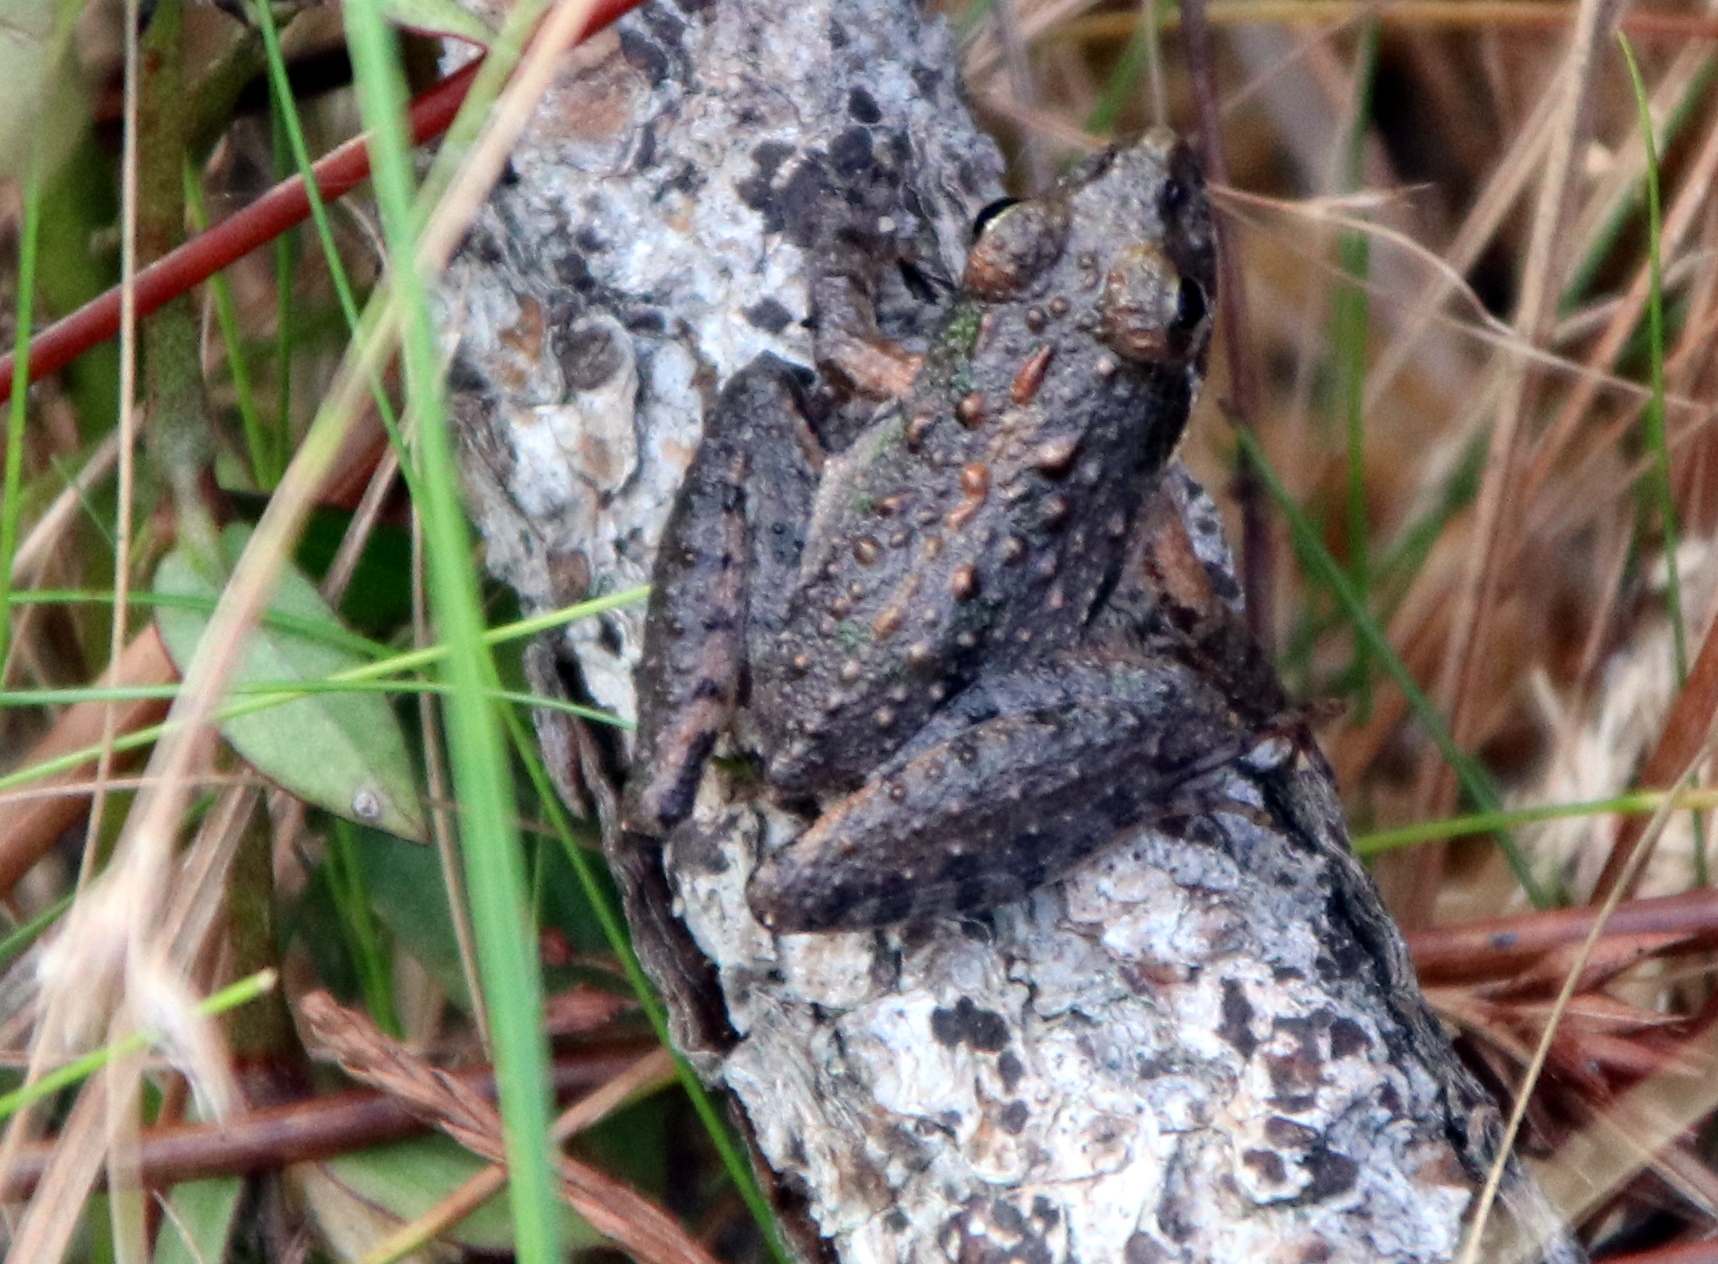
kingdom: Animalia
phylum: Chordata
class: Amphibia
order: Anura
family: Hylidae
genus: Acris
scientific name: Acris gryllus
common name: Southern cricket frog
